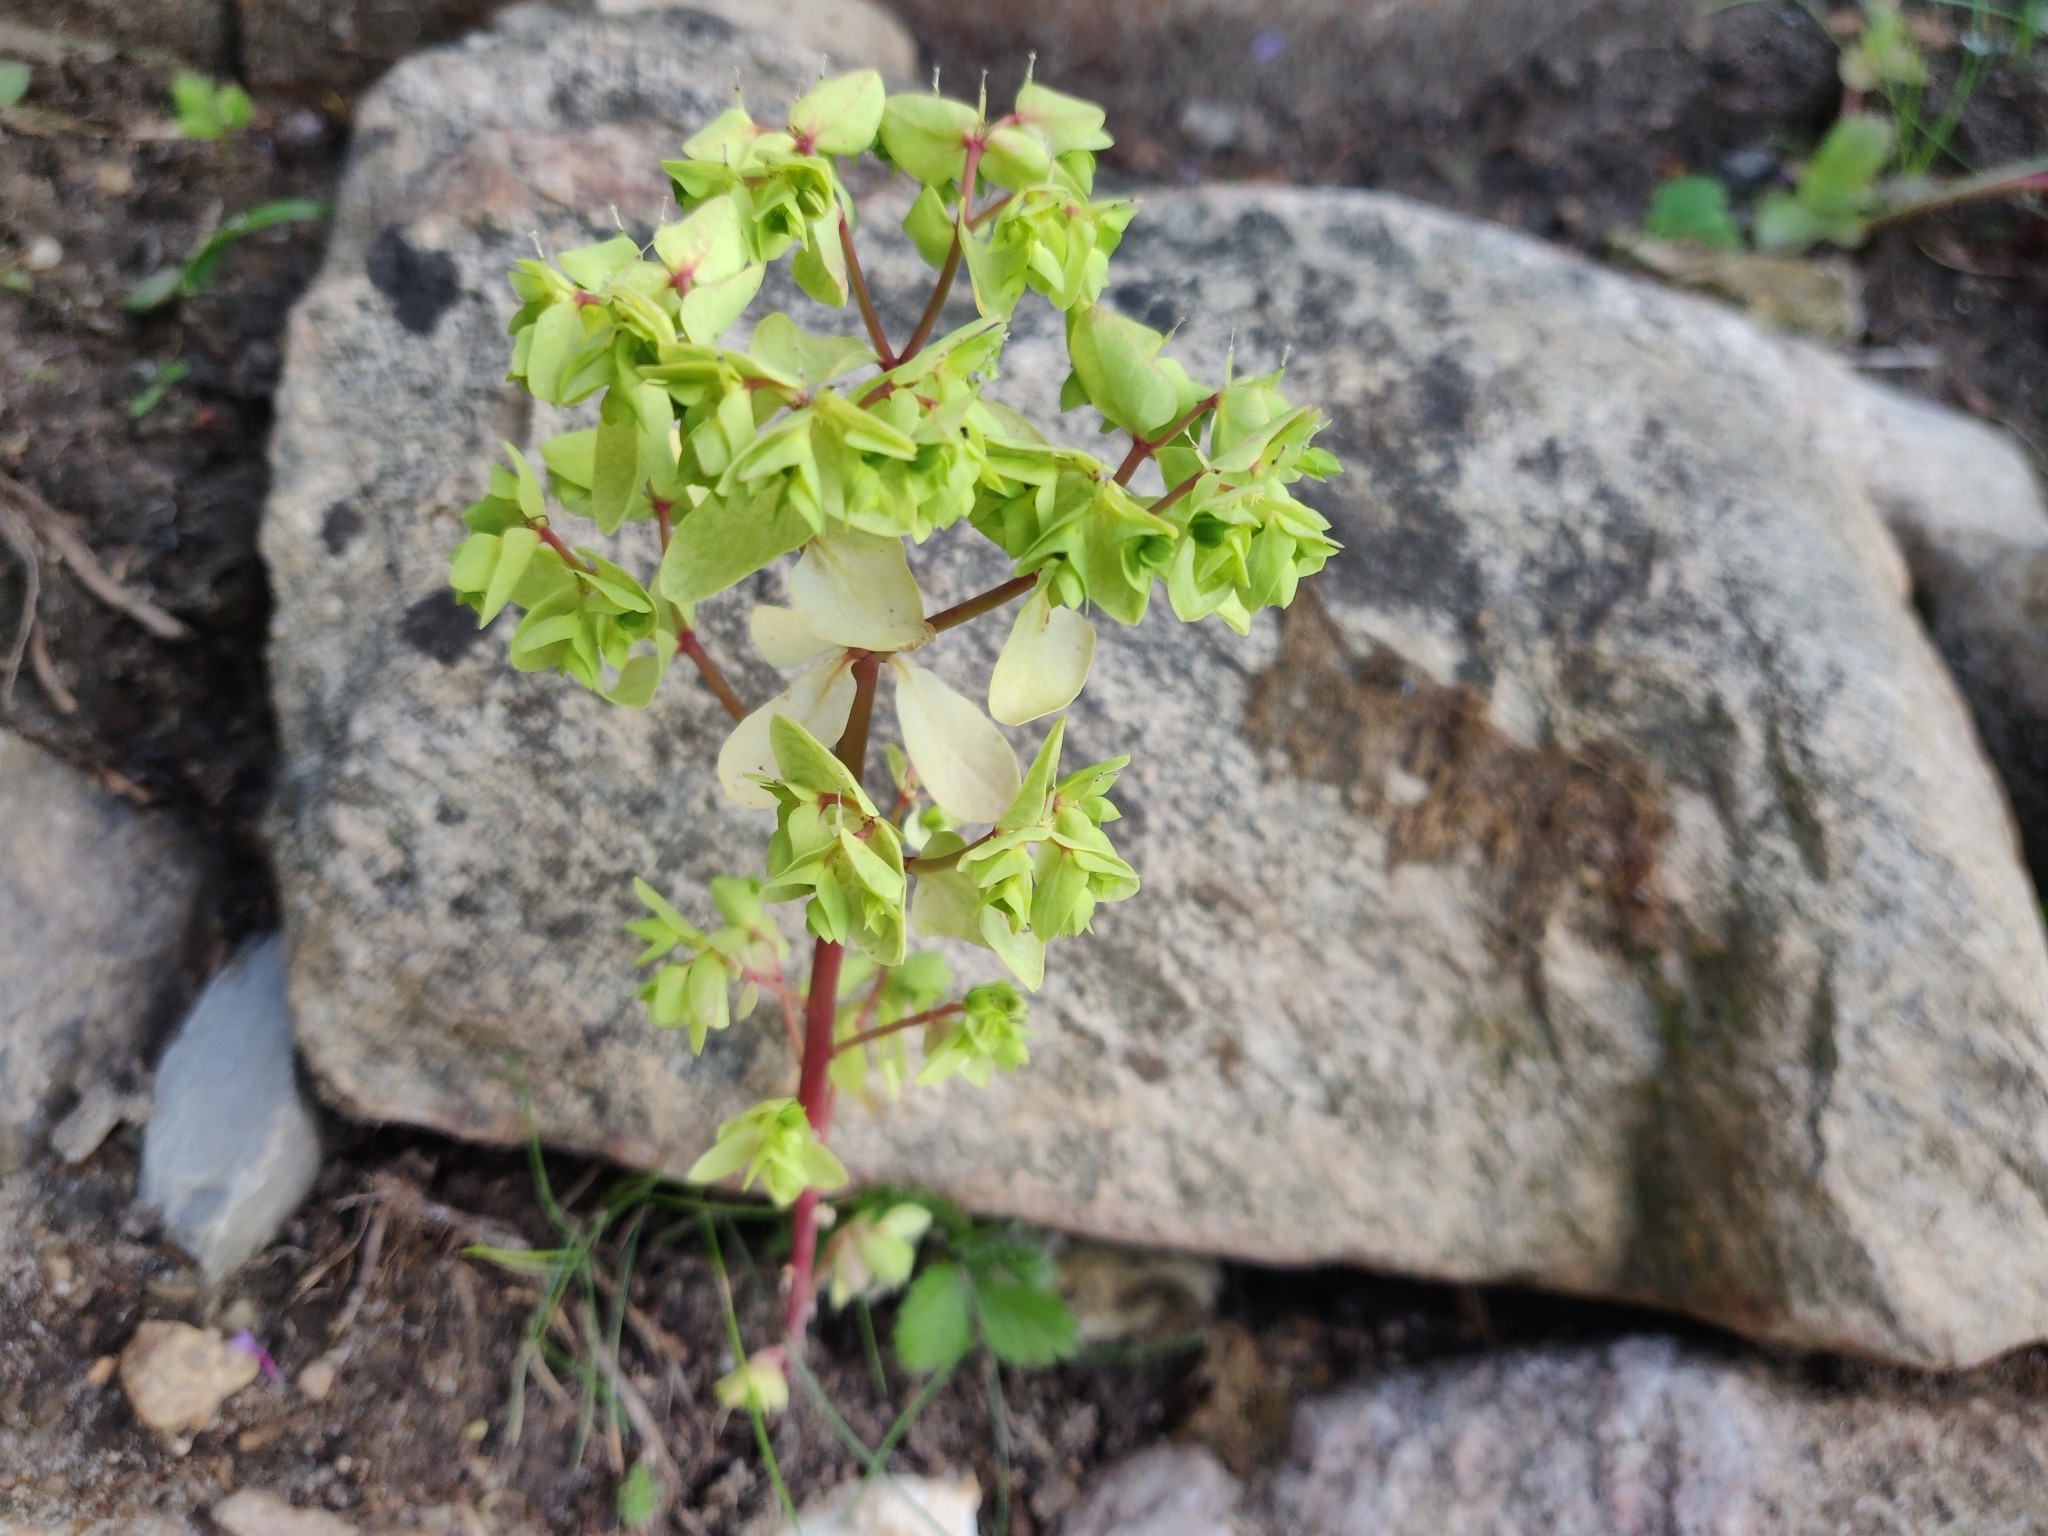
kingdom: Plantae
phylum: Tracheophyta
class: Magnoliopsida
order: Malpighiales
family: Euphorbiaceae
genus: Euphorbia
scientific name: Euphorbia peplus
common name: Petty spurge
